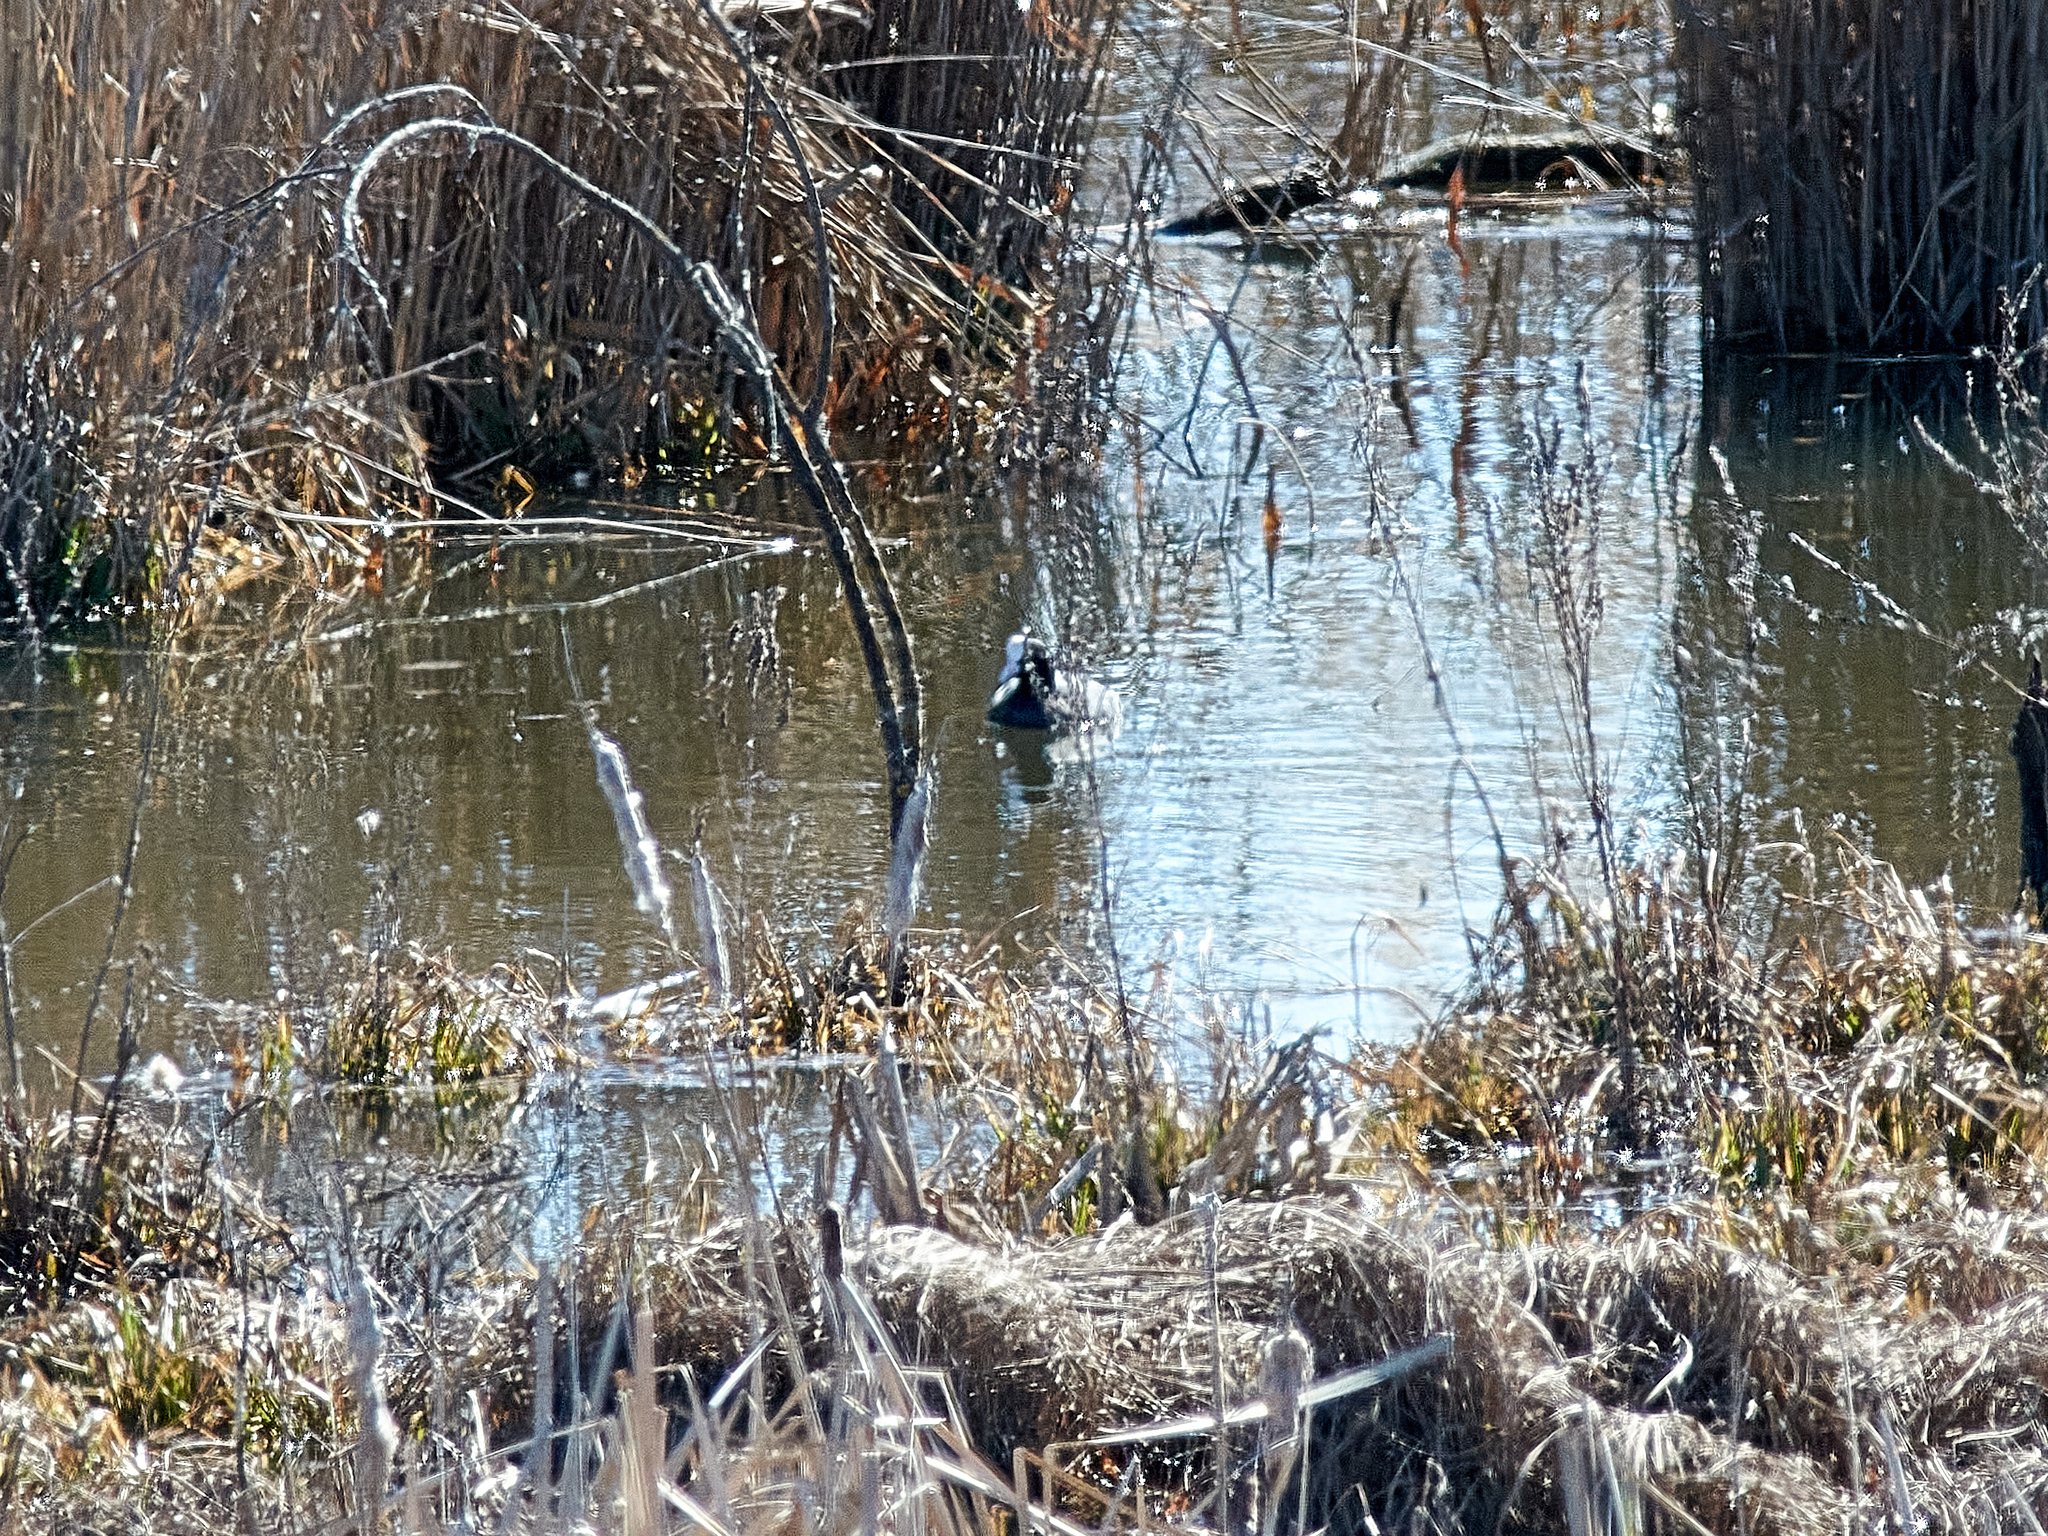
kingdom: Animalia
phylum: Chordata
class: Aves
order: Gruiformes
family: Rallidae
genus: Fulica
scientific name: Fulica atra
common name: Eurasian coot
